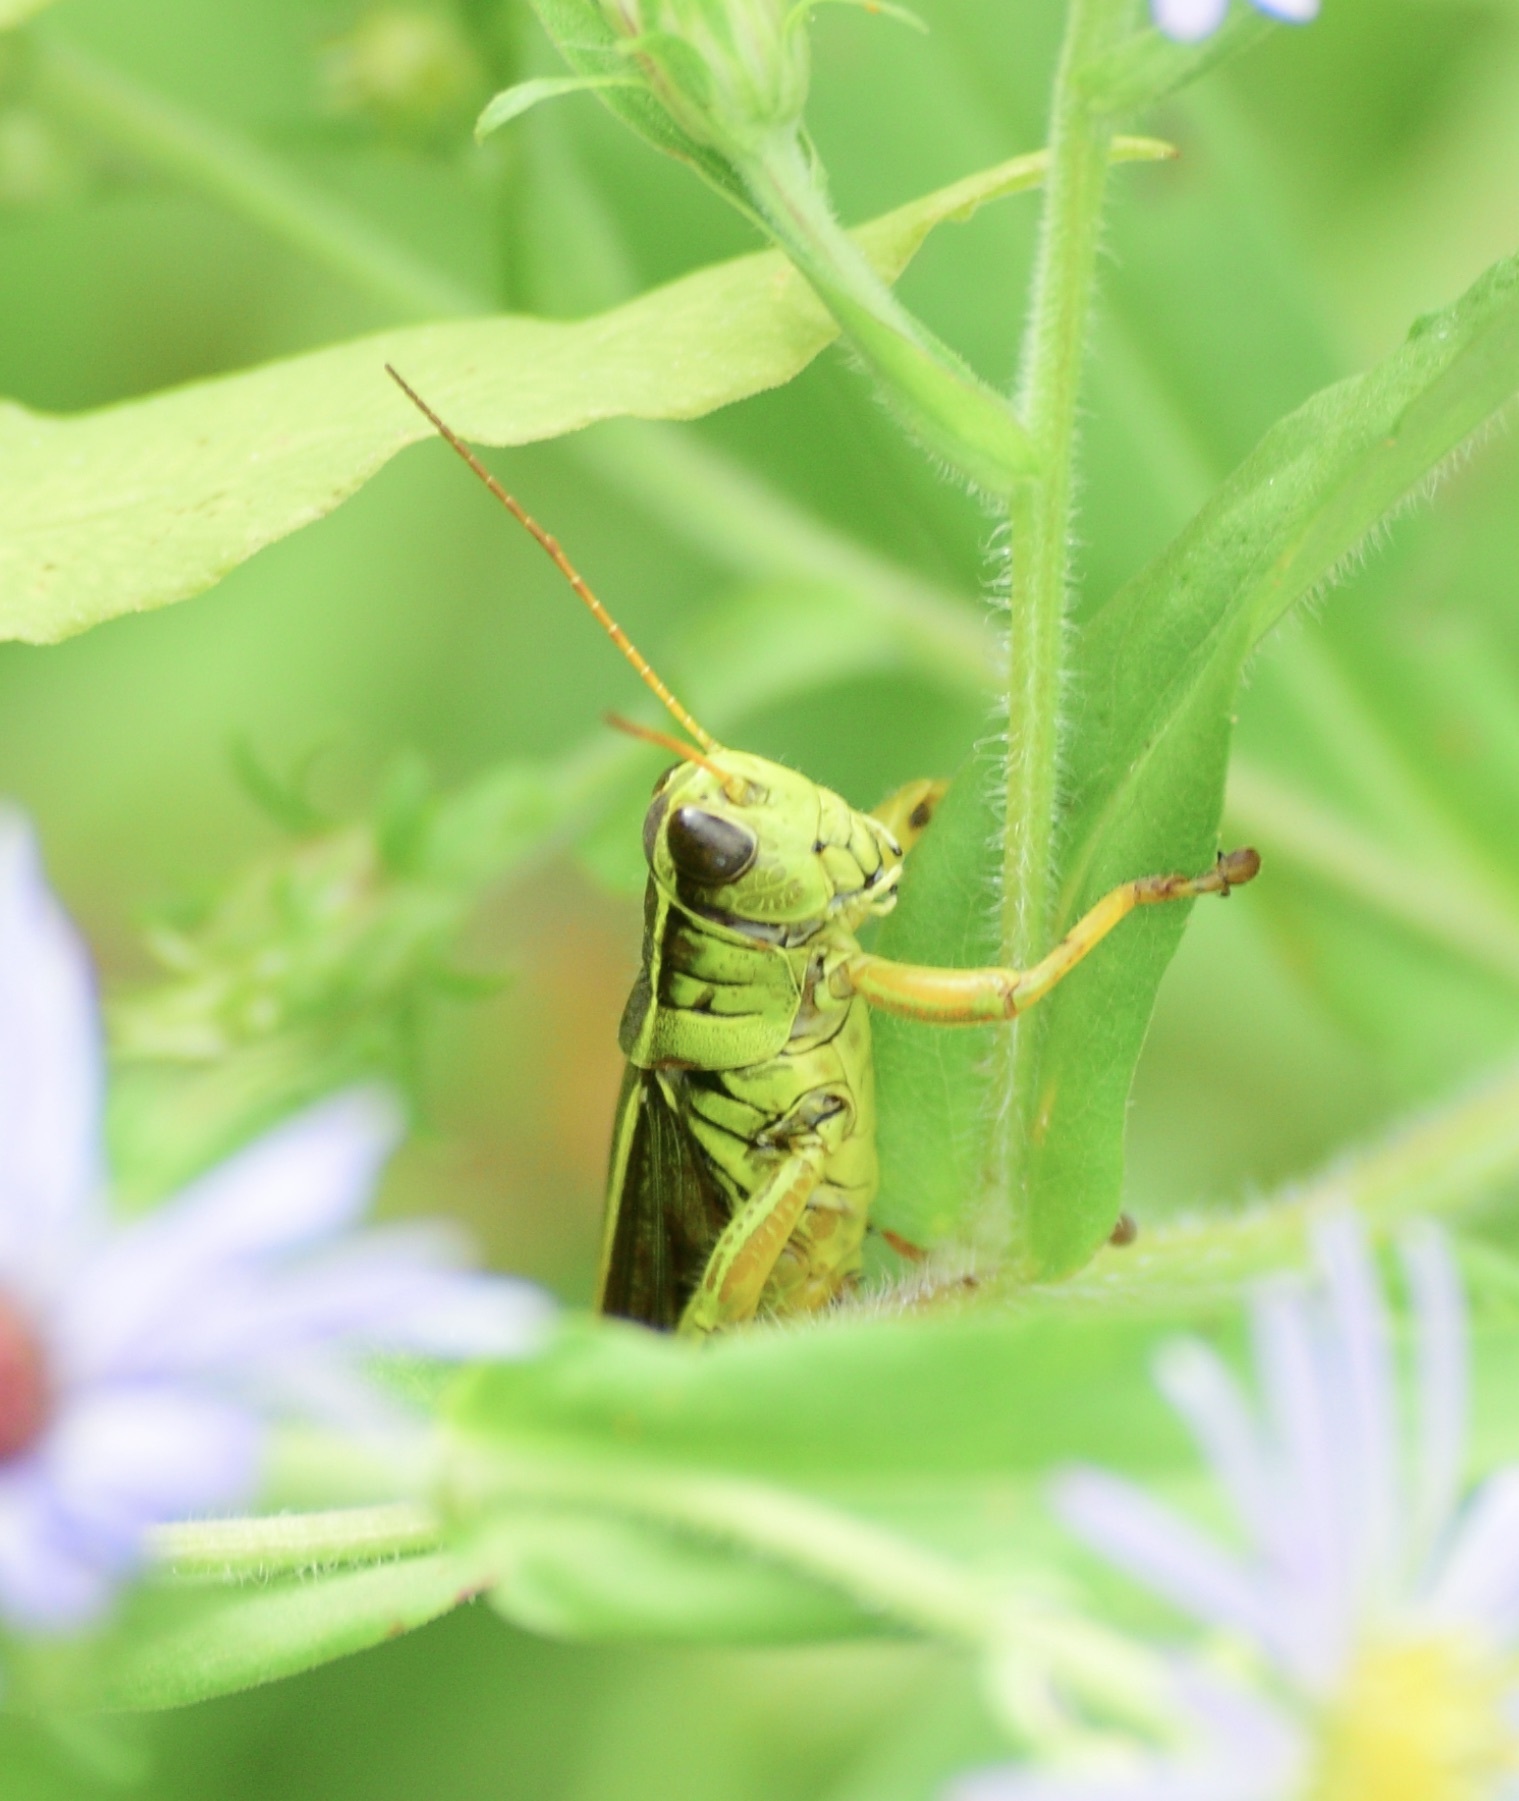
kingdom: Animalia
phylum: Arthropoda
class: Insecta
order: Orthoptera
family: Acrididae
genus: Melanoplus
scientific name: Melanoplus bivittatus
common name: Two-striped grasshopper
